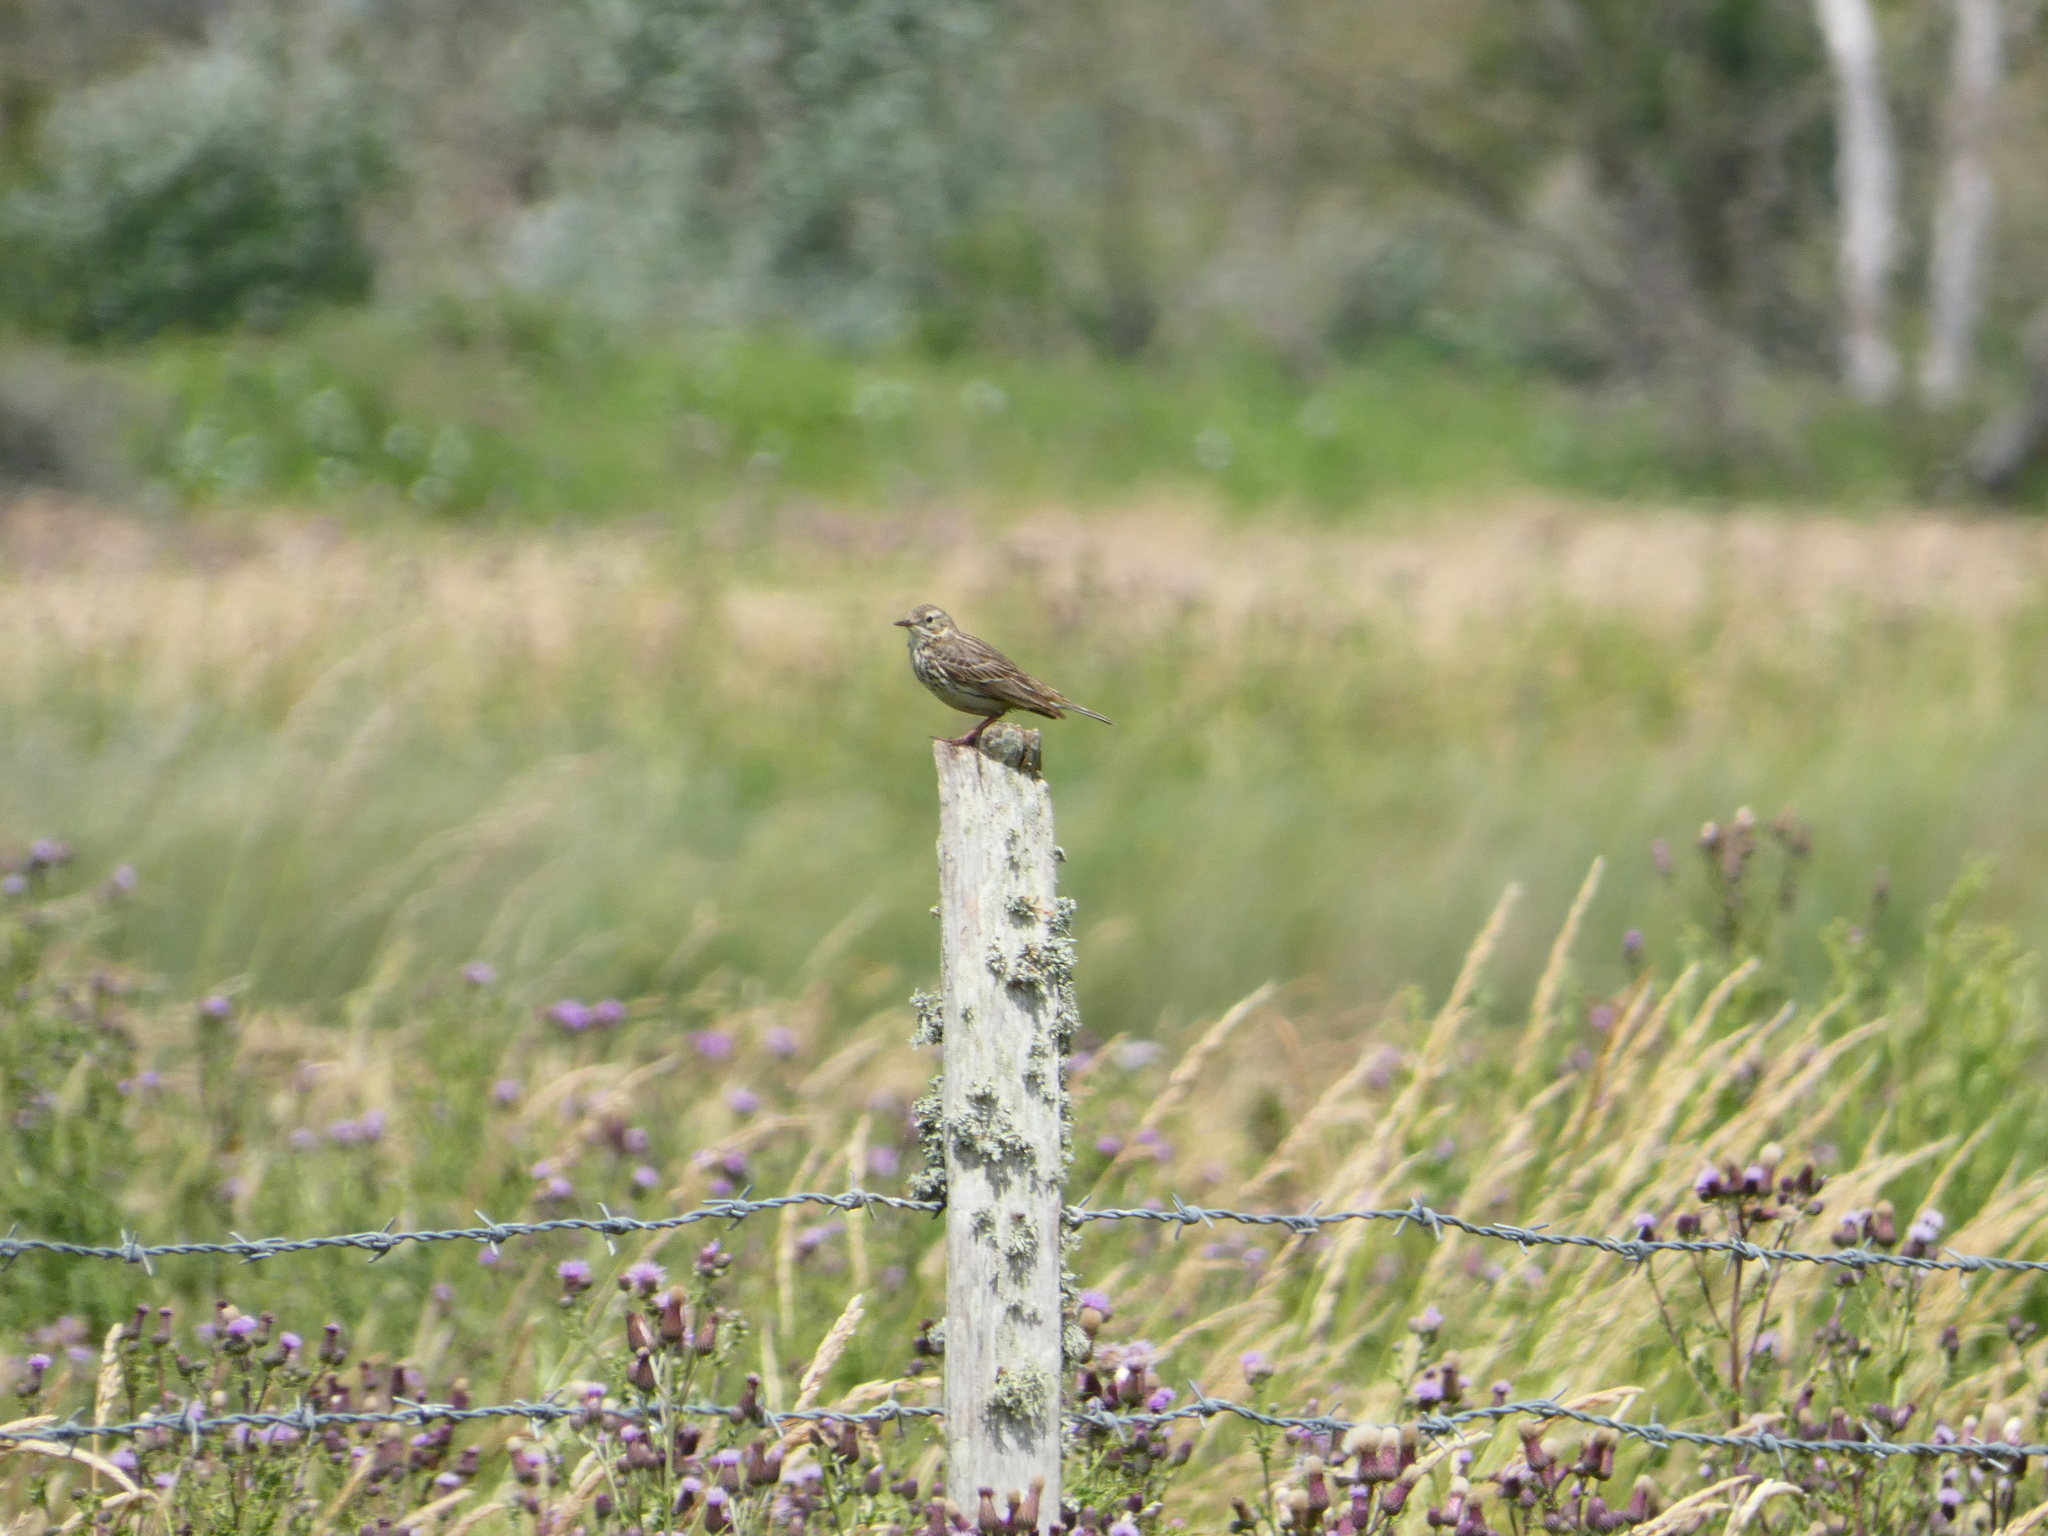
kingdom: Animalia
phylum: Chordata
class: Aves
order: Passeriformes
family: Motacillidae
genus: Anthus
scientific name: Anthus pratensis
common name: Meadow pipit
